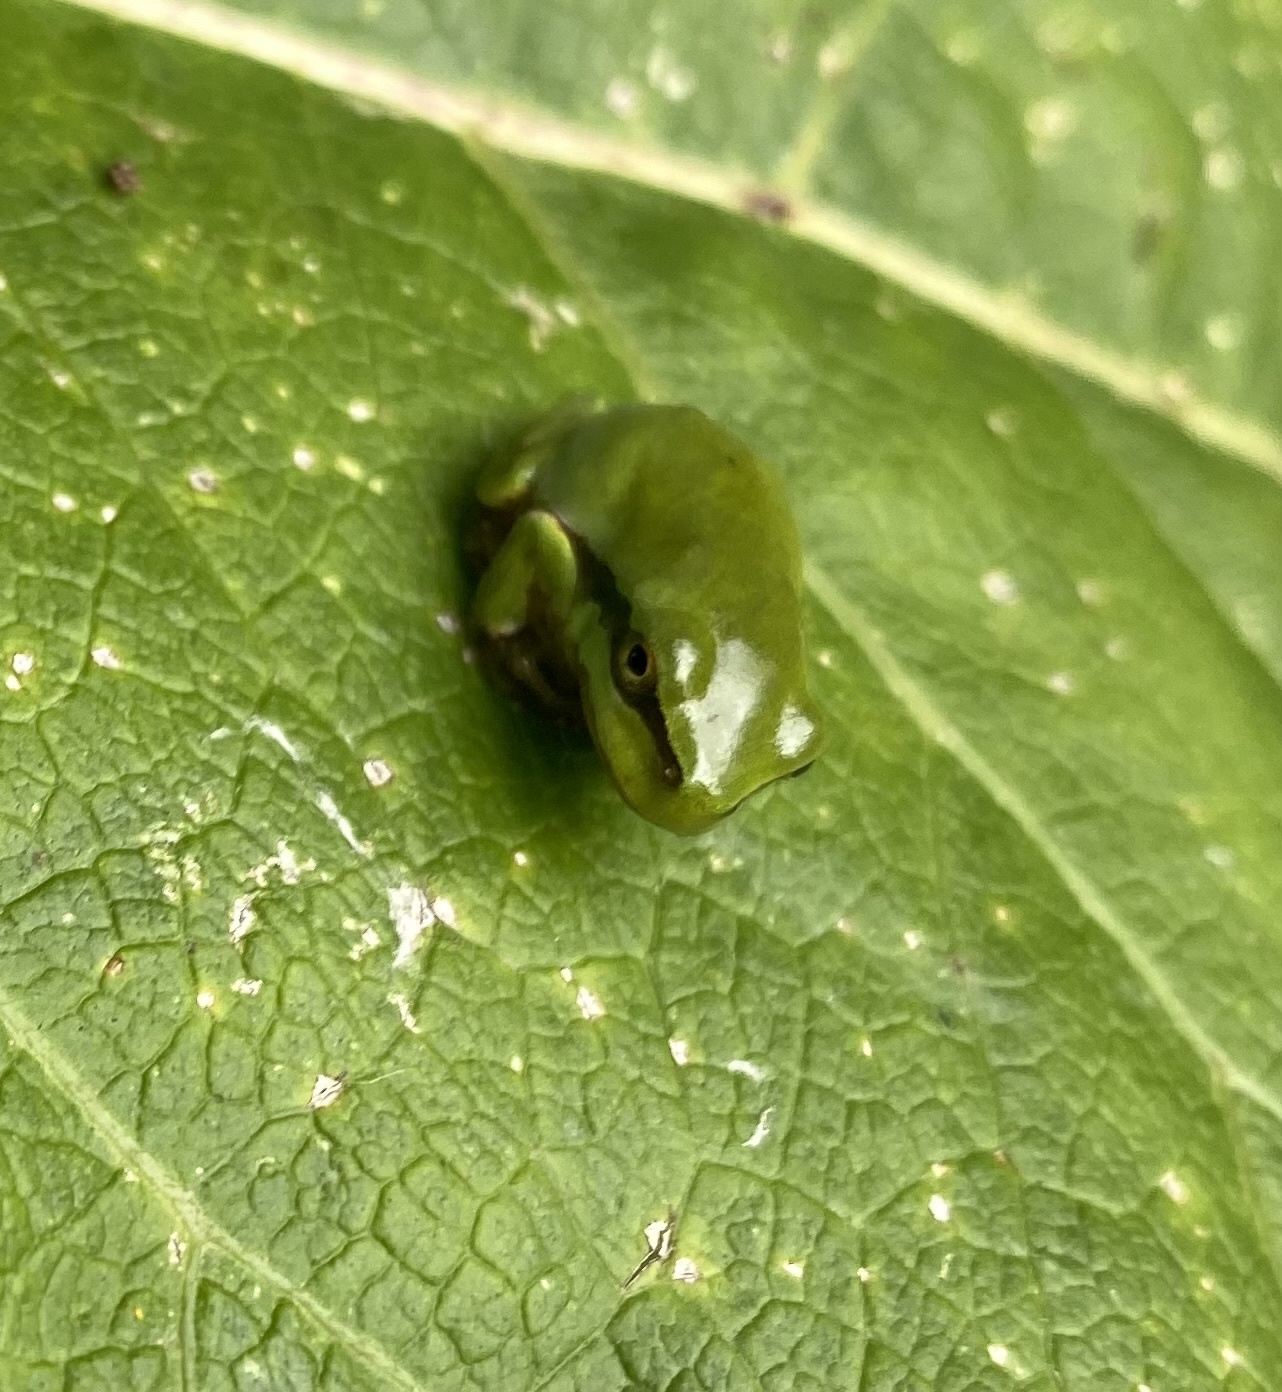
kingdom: Animalia
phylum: Chordata
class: Amphibia
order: Anura
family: Hylidae
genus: Hyla
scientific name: Hyla orientalis
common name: Caucasian treefrog
